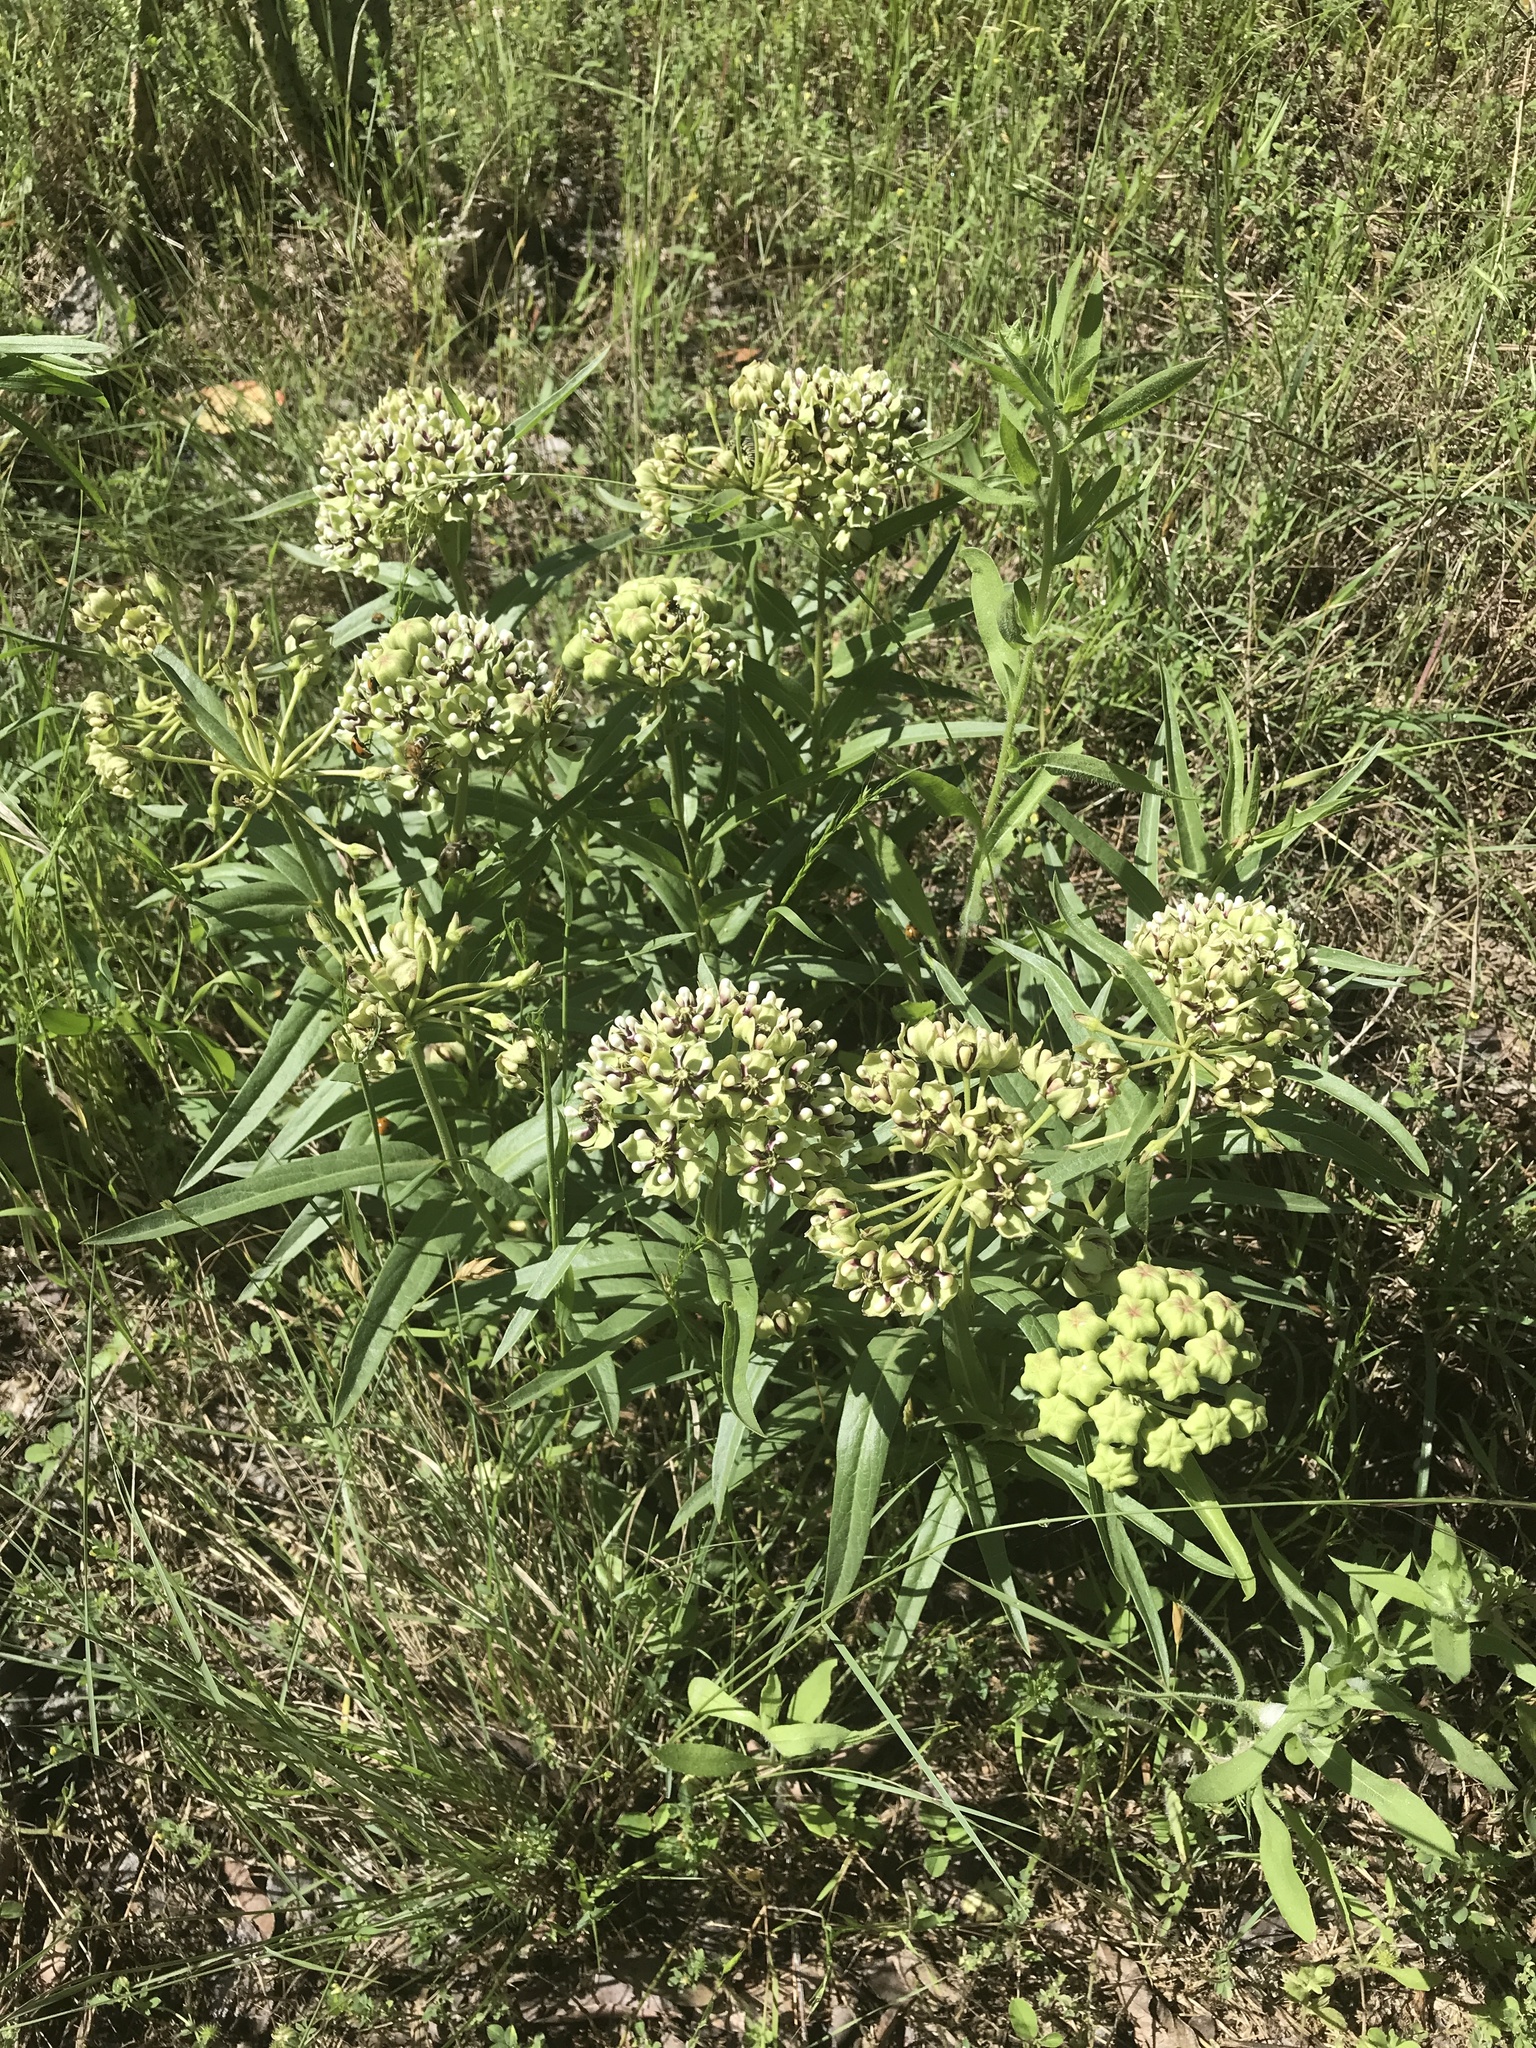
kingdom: Plantae
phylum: Tracheophyta
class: Magnoliopsida
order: Gentianales
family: Apocynaceae
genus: Asclepias
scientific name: Asclepias asperula
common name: Antelope horns
